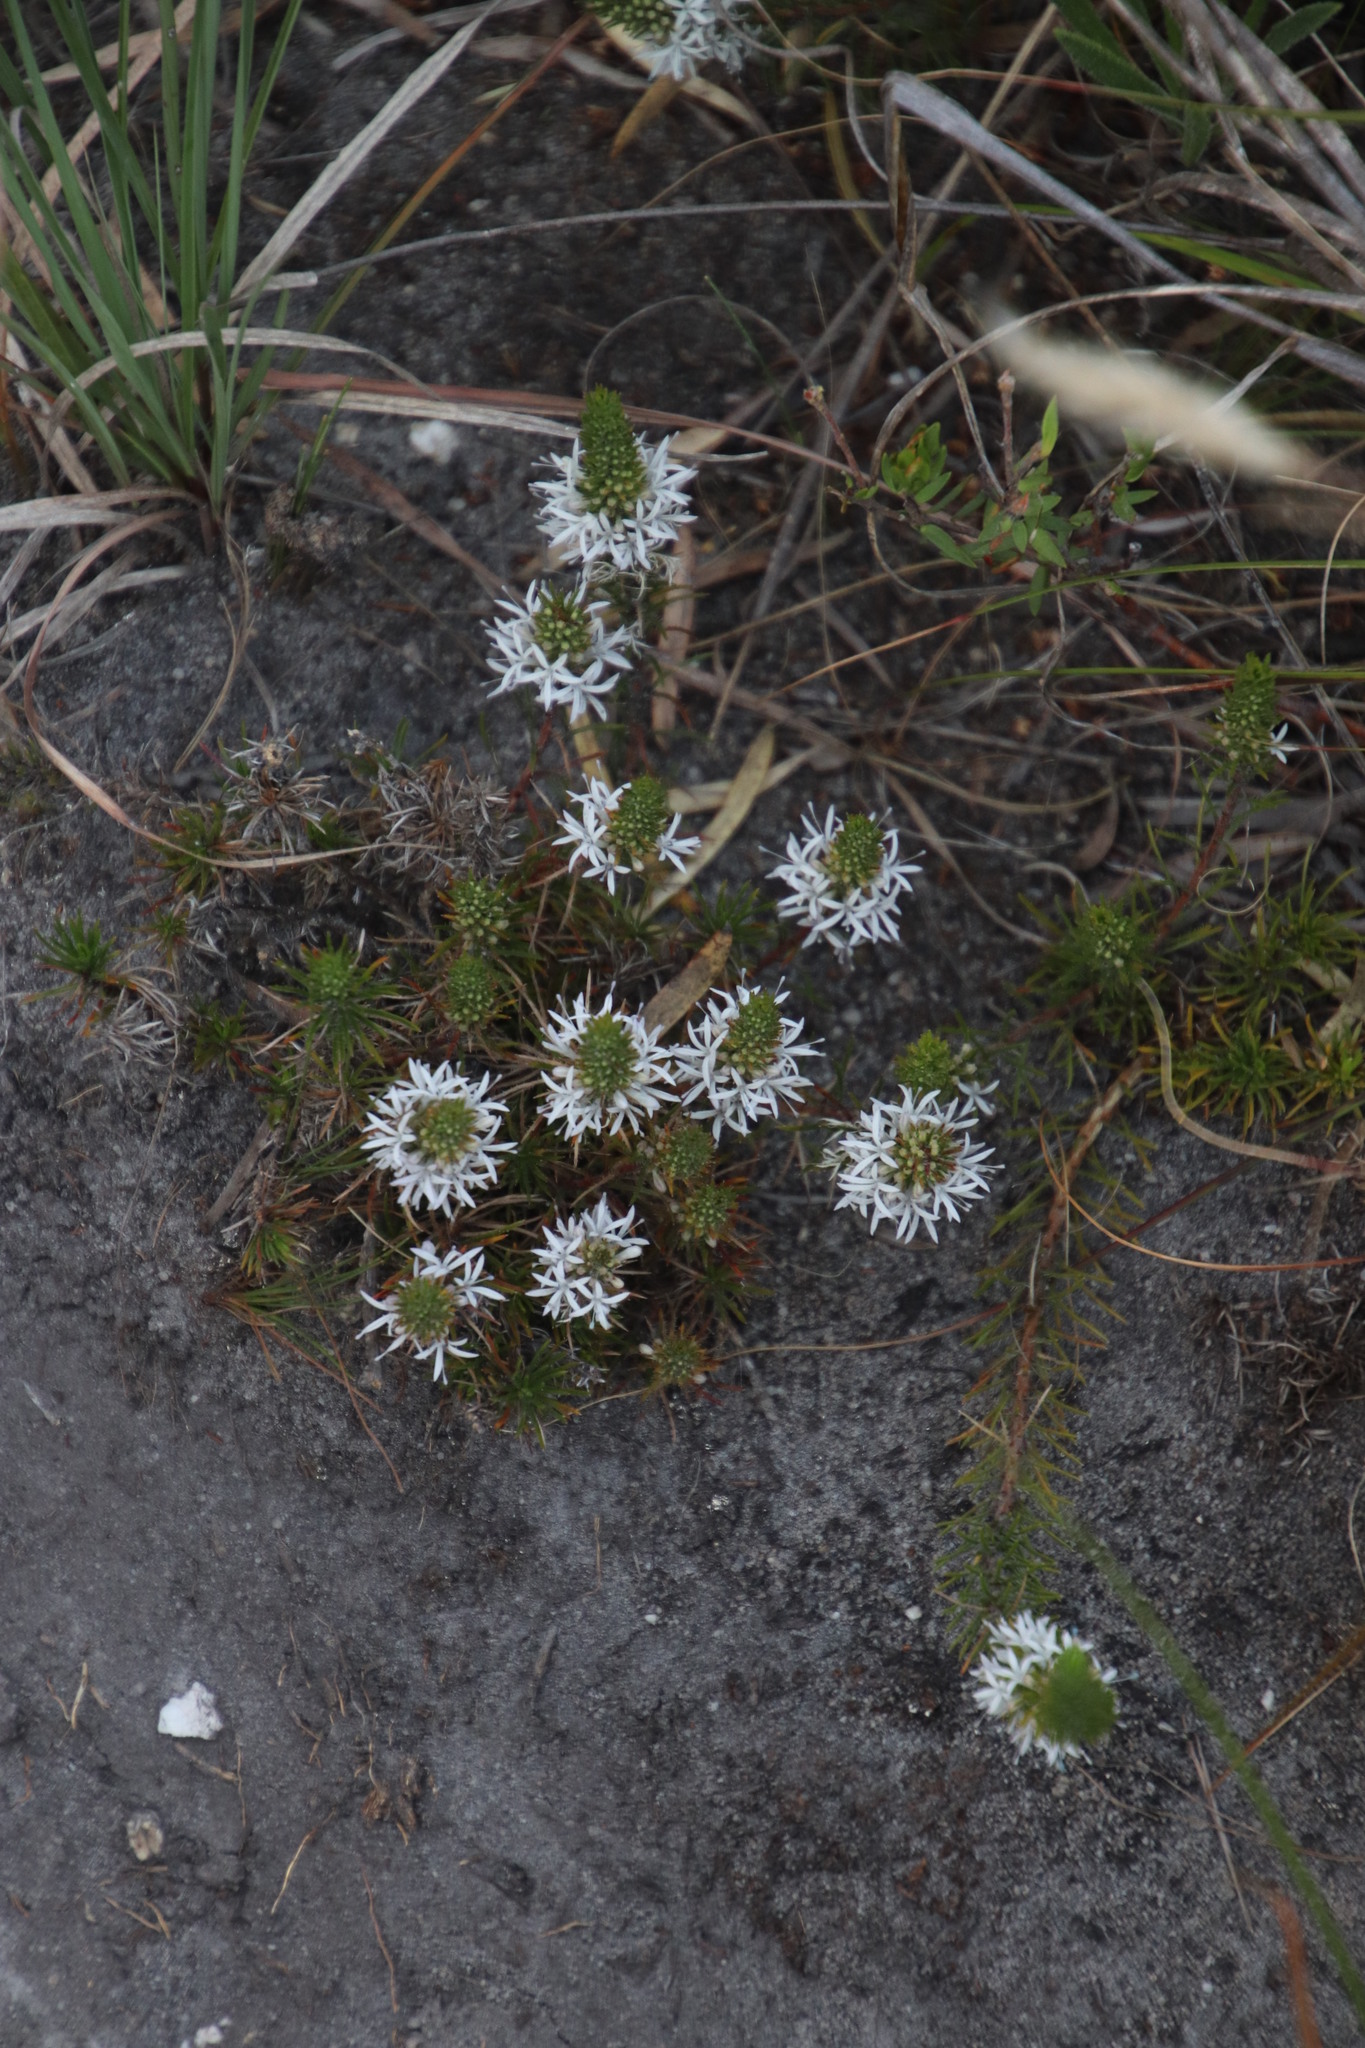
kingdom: Plantae
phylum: Tracheophyta
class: Magnoliopsida
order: Asterales
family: Campanulaceae
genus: Merciera
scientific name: Merciera leptoloba
